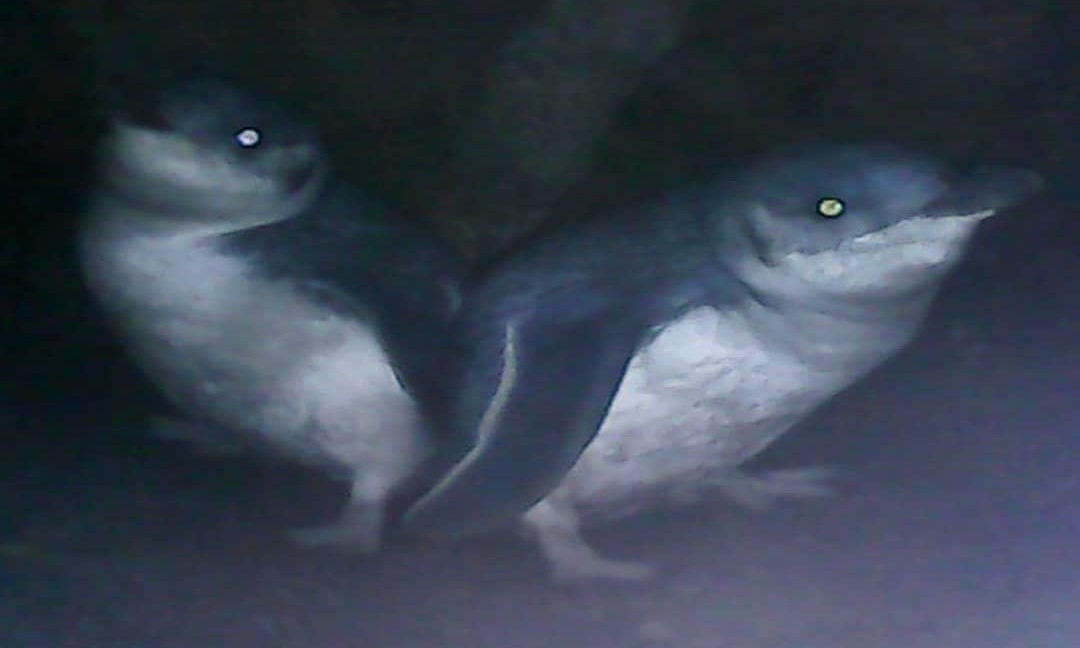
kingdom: Animalia
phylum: Chordata
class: Aves
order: Sphenisciformes
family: Spheniscidae
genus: Eudyptula
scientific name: Eudyptula minor
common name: Little penguin
